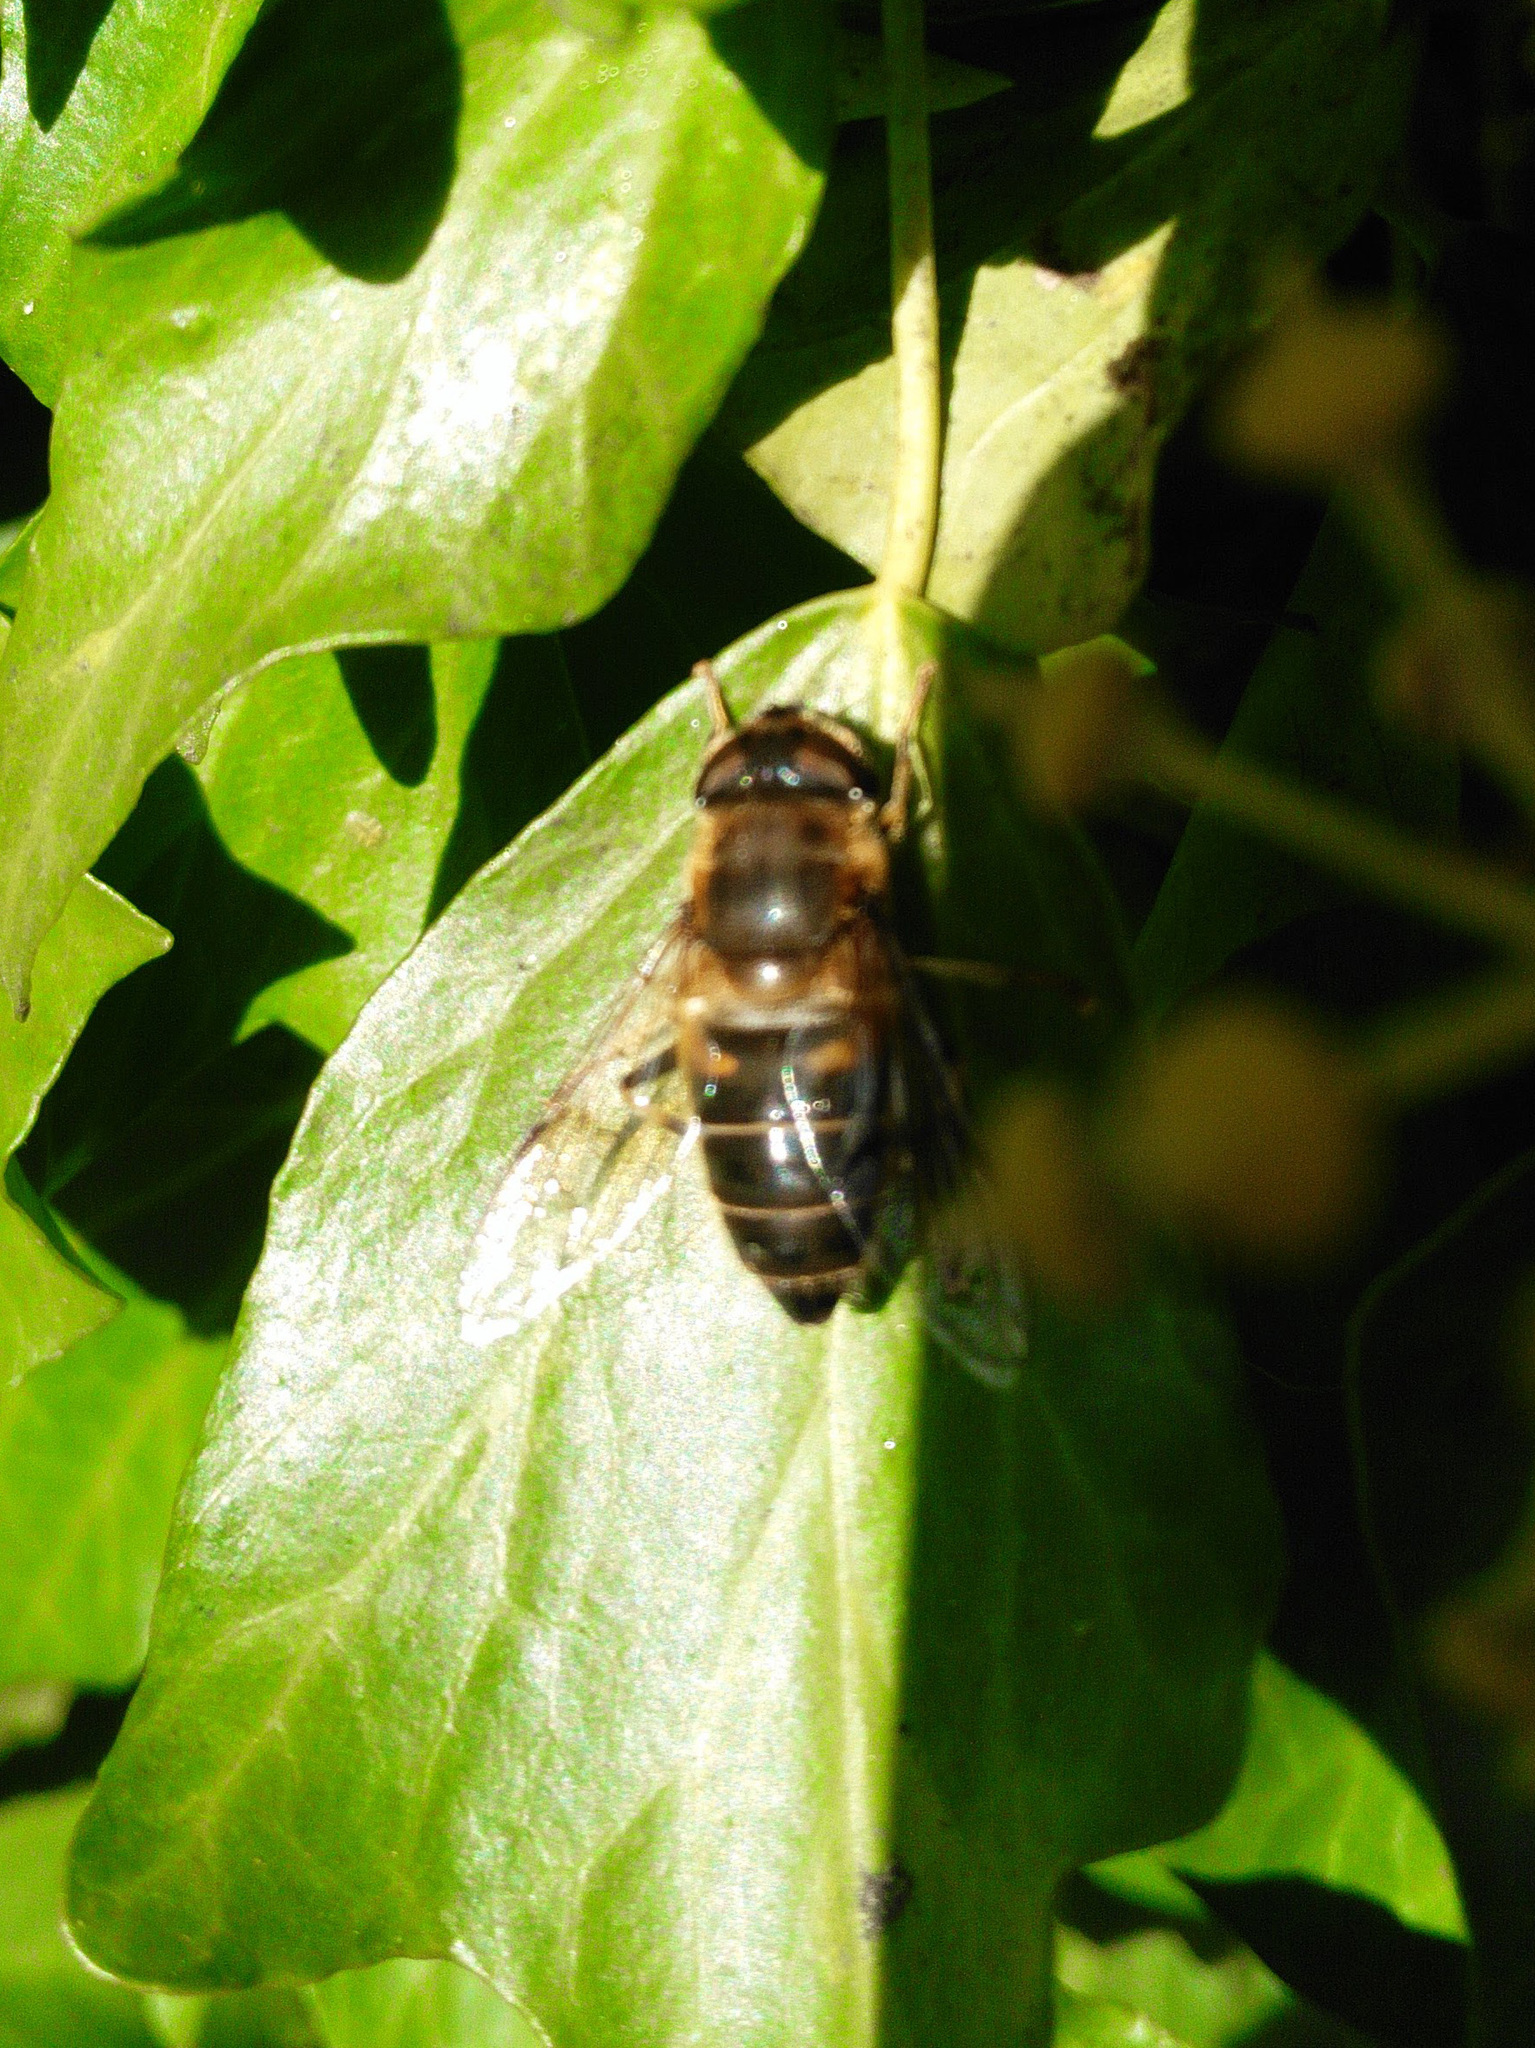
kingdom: Animalia
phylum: Arthropoda
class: Insecta
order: Diptera
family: Syrphidae
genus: Eristalis
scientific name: Eristalis pertinax
